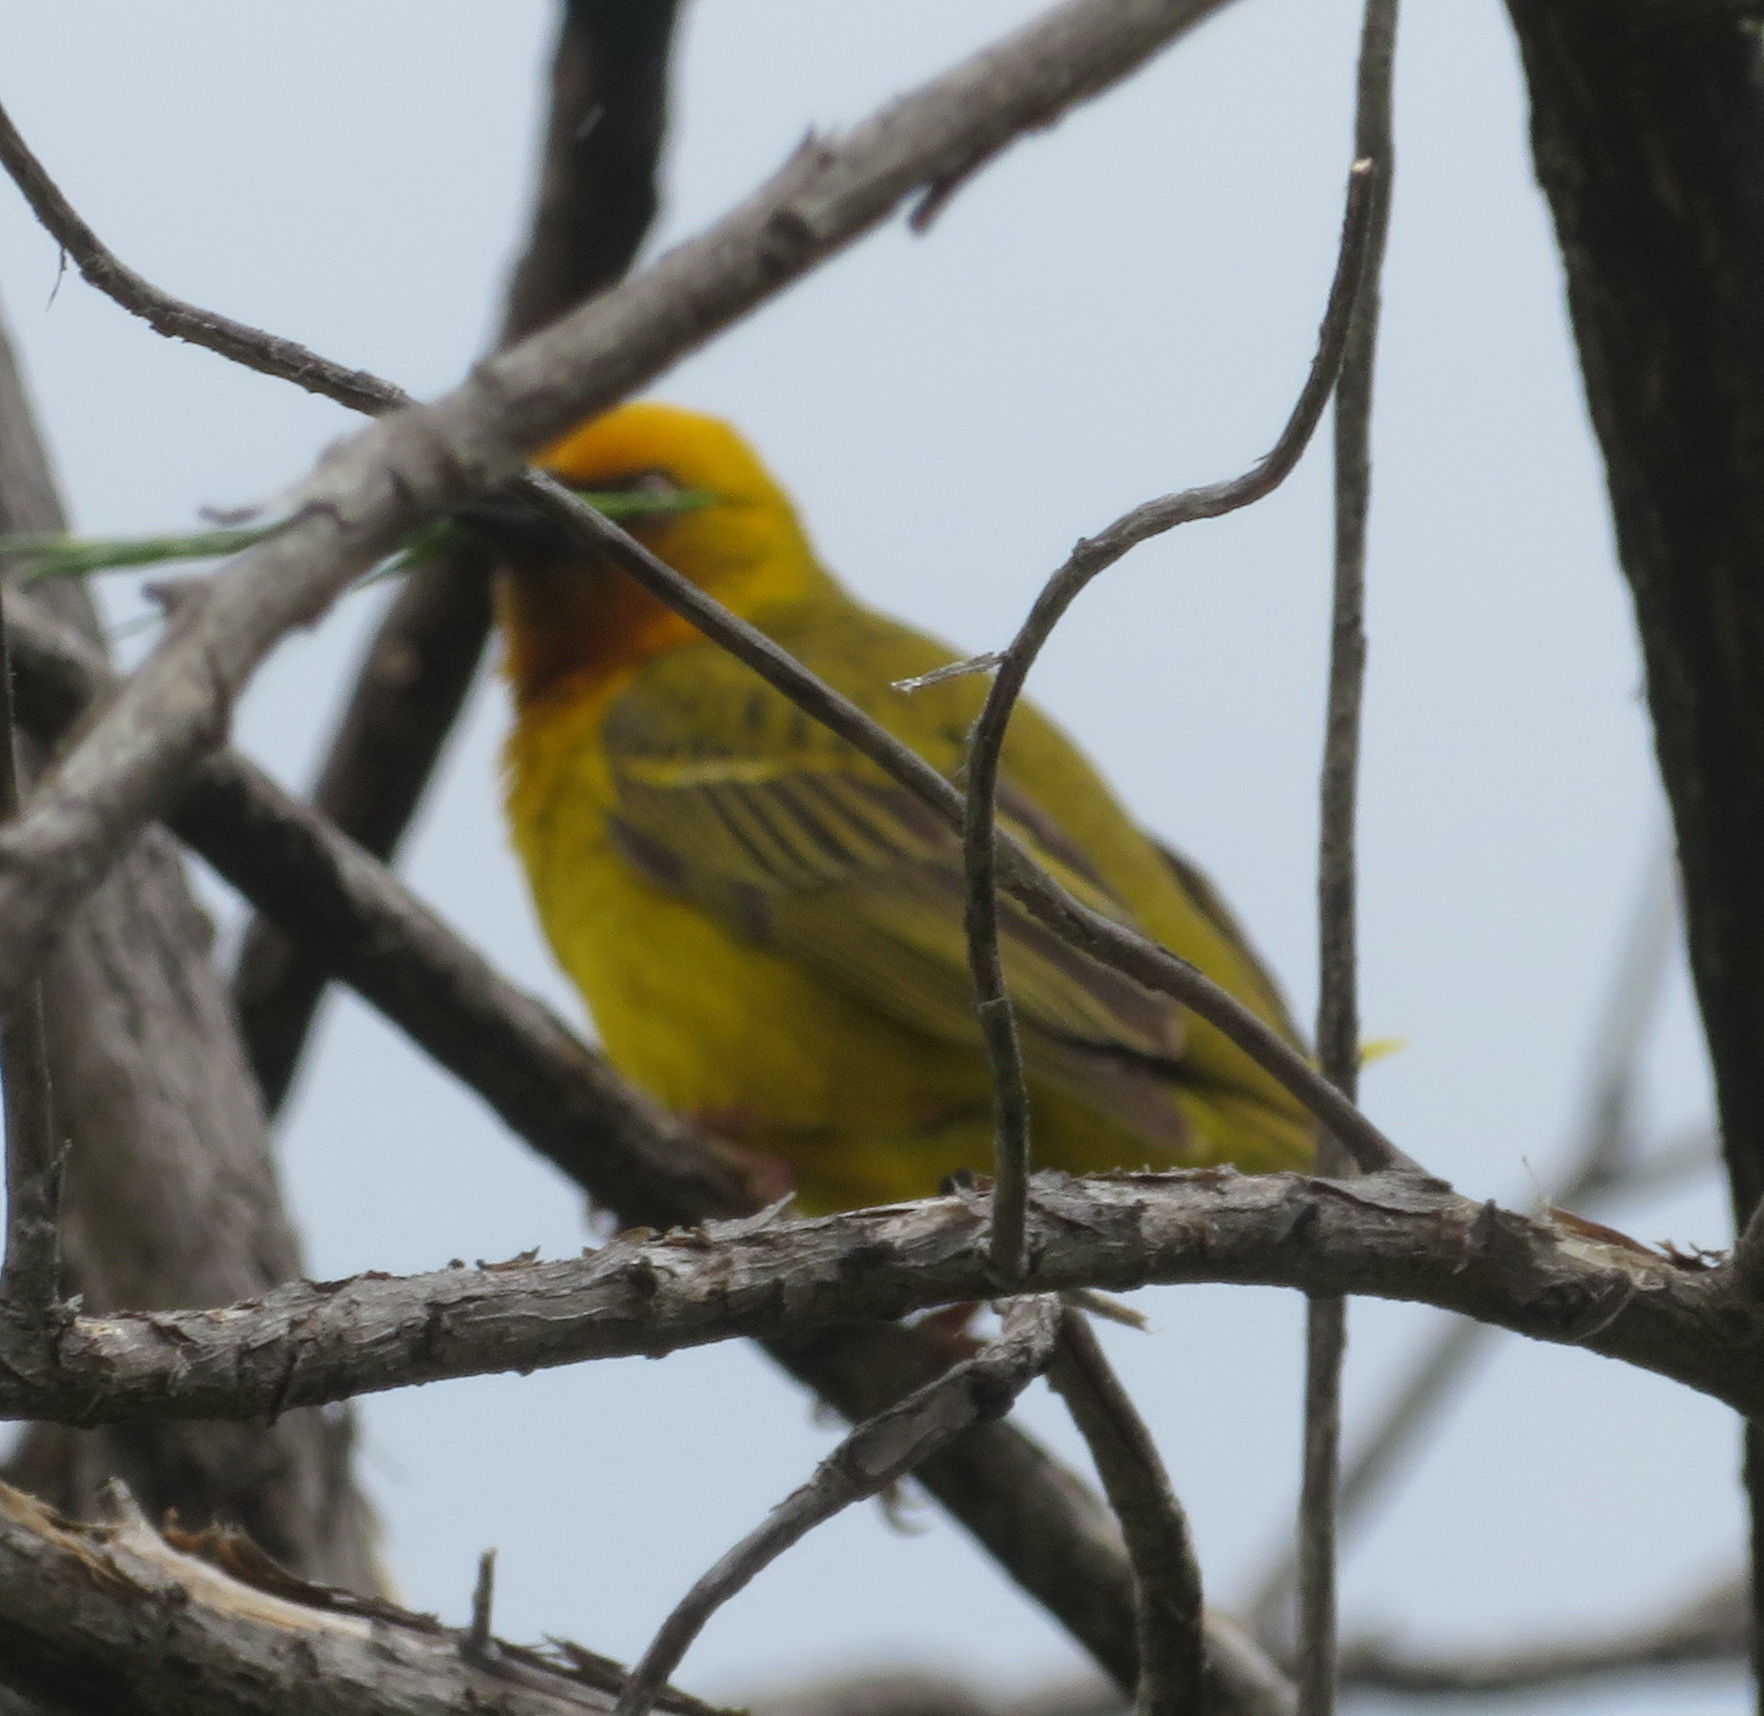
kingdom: Animalia
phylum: Chordata
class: Aves
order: Passeriformes
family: Ploceidae
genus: Ploceus
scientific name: Ploceus capensis
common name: Cape weaver
